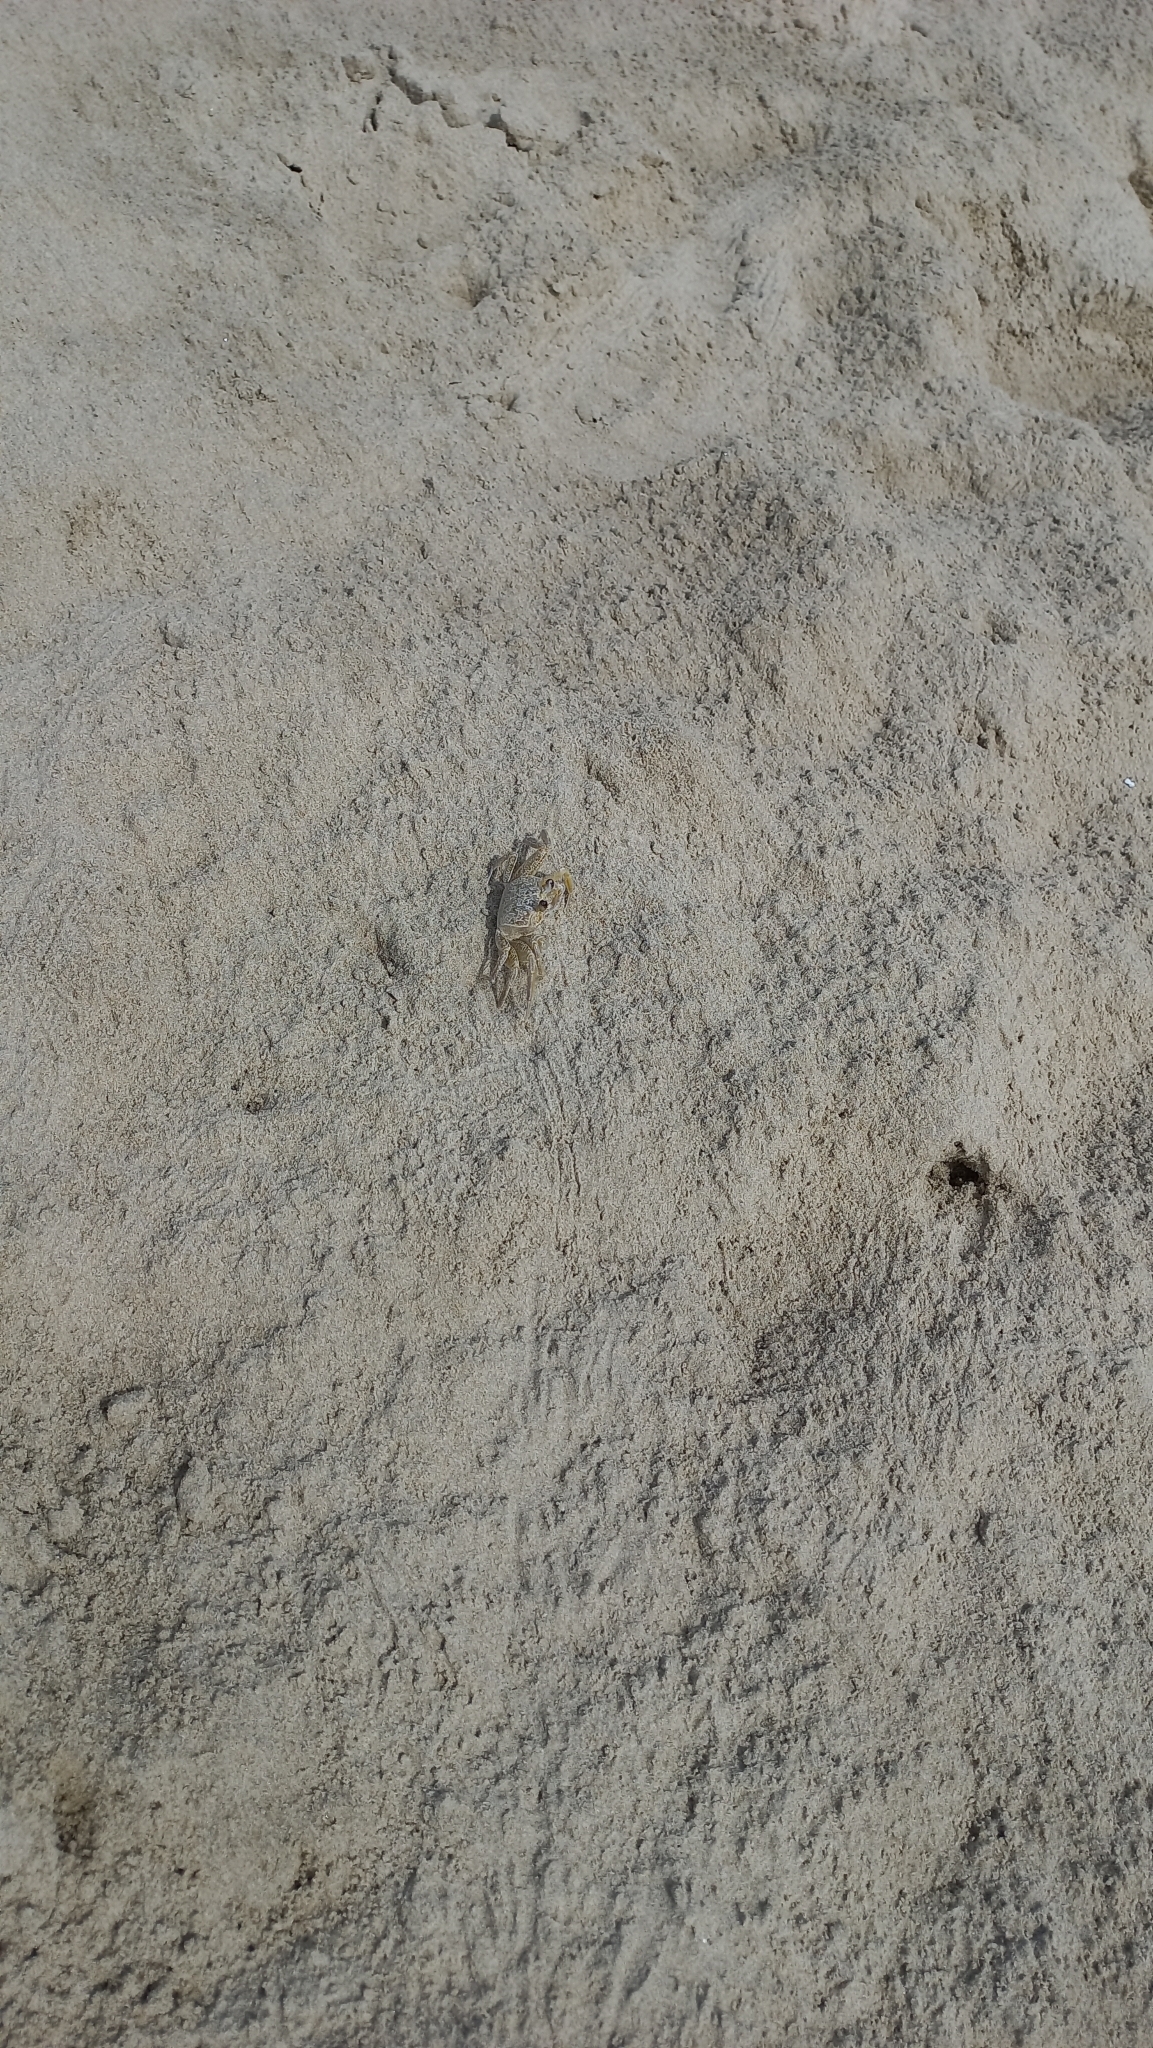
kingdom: Animalia
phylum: Arthropoda
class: Malacostraca
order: Decapoda
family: Ocypodidae
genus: Ocypode
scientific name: Ocypode quadrata
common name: Ghost crab
